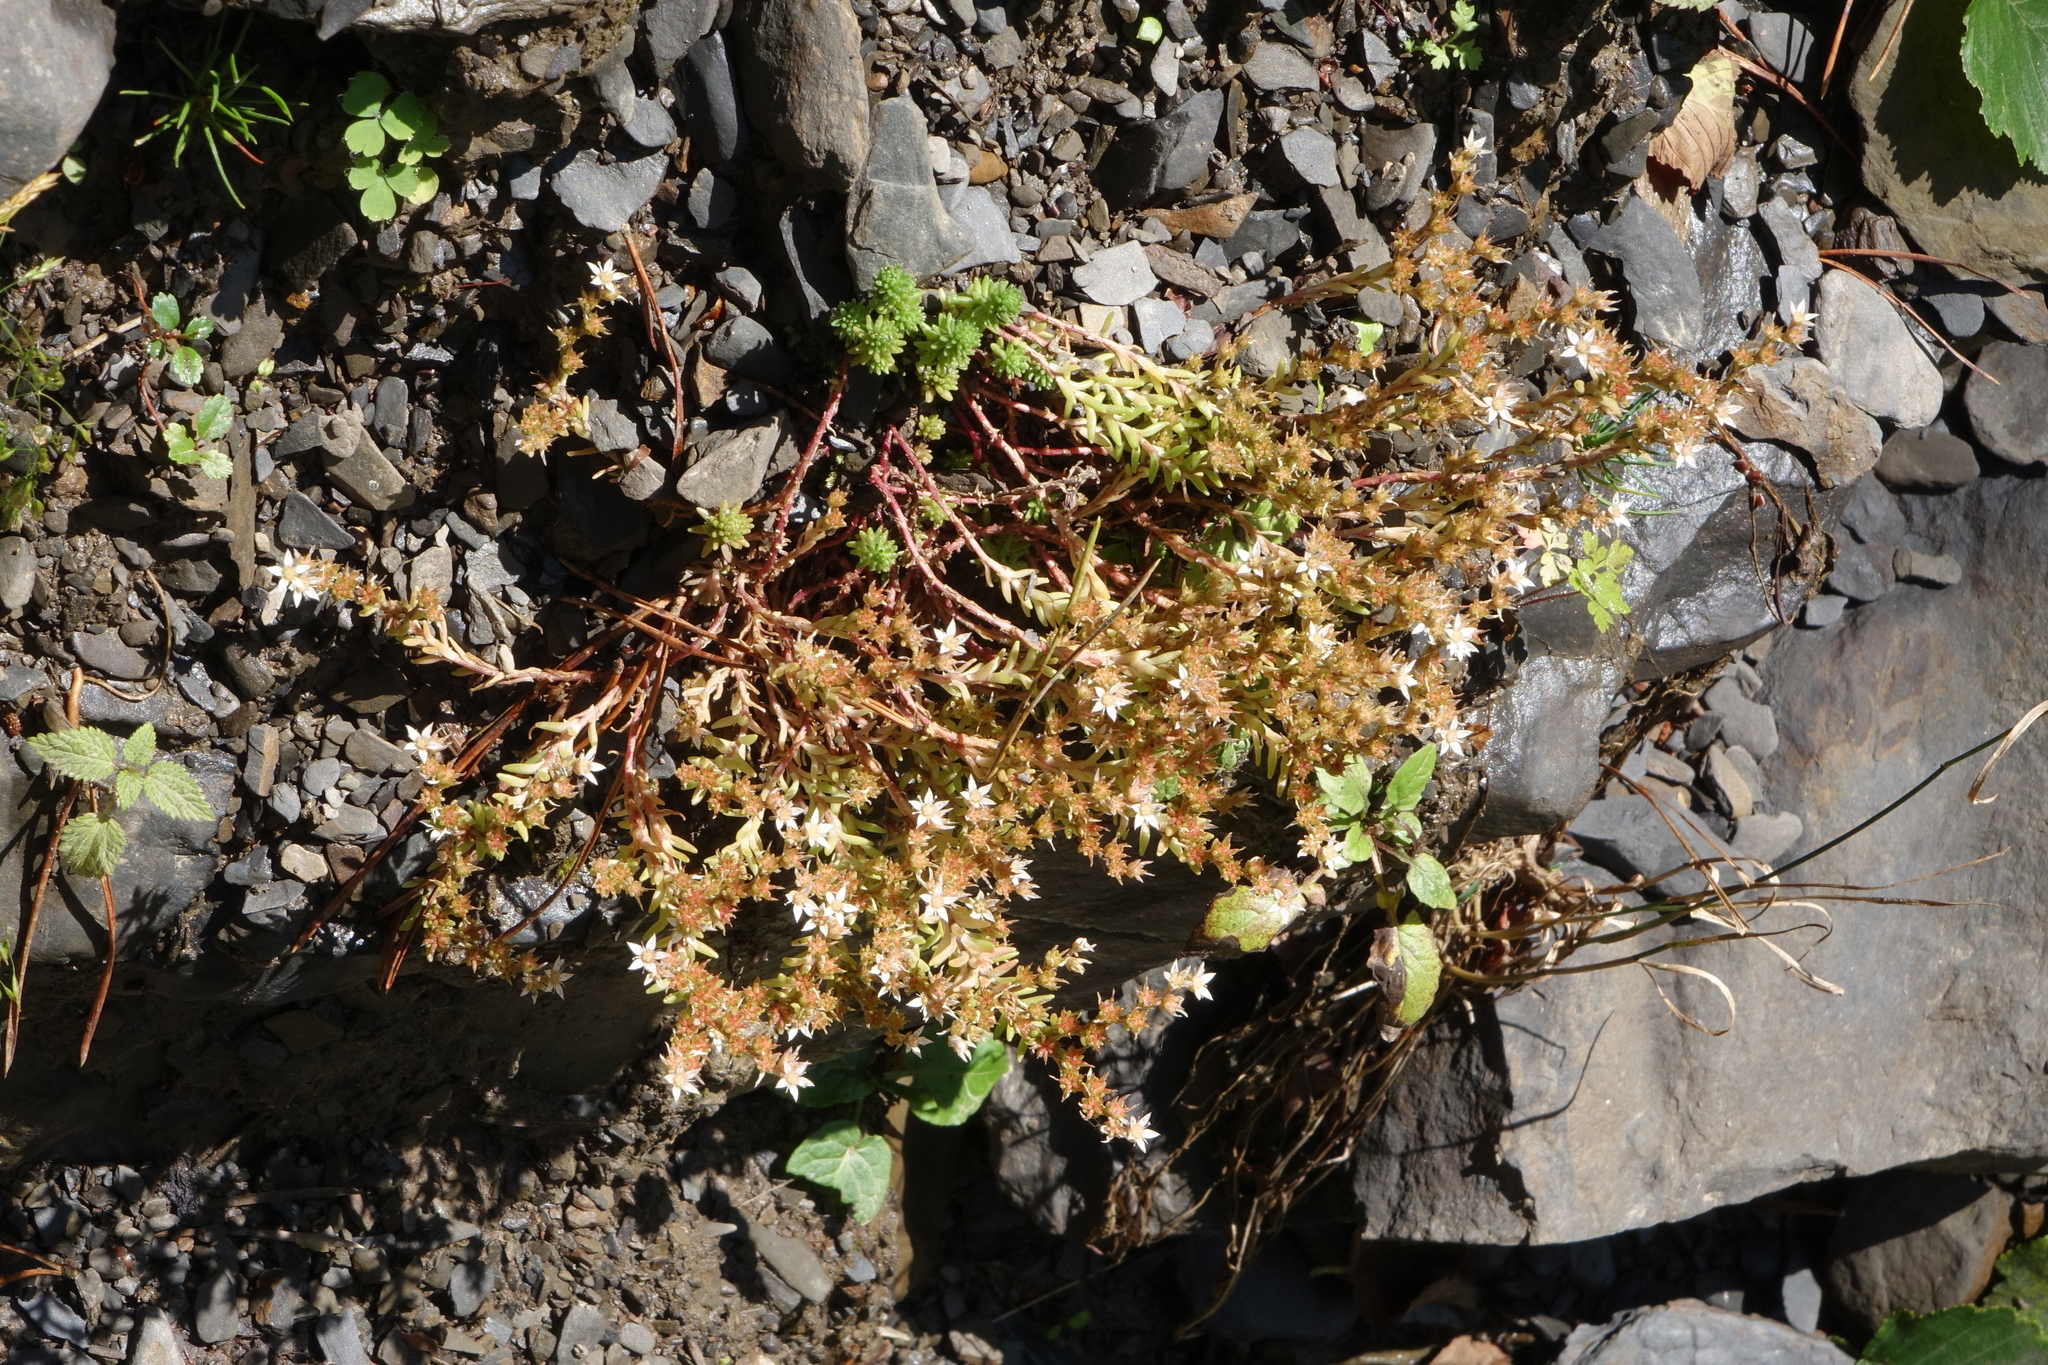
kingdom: Plantae
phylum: Tracheophyta
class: Magnoliopsida
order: Saxifragales
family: Crassulaceae
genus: Sedum
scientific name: Sedum gracile
